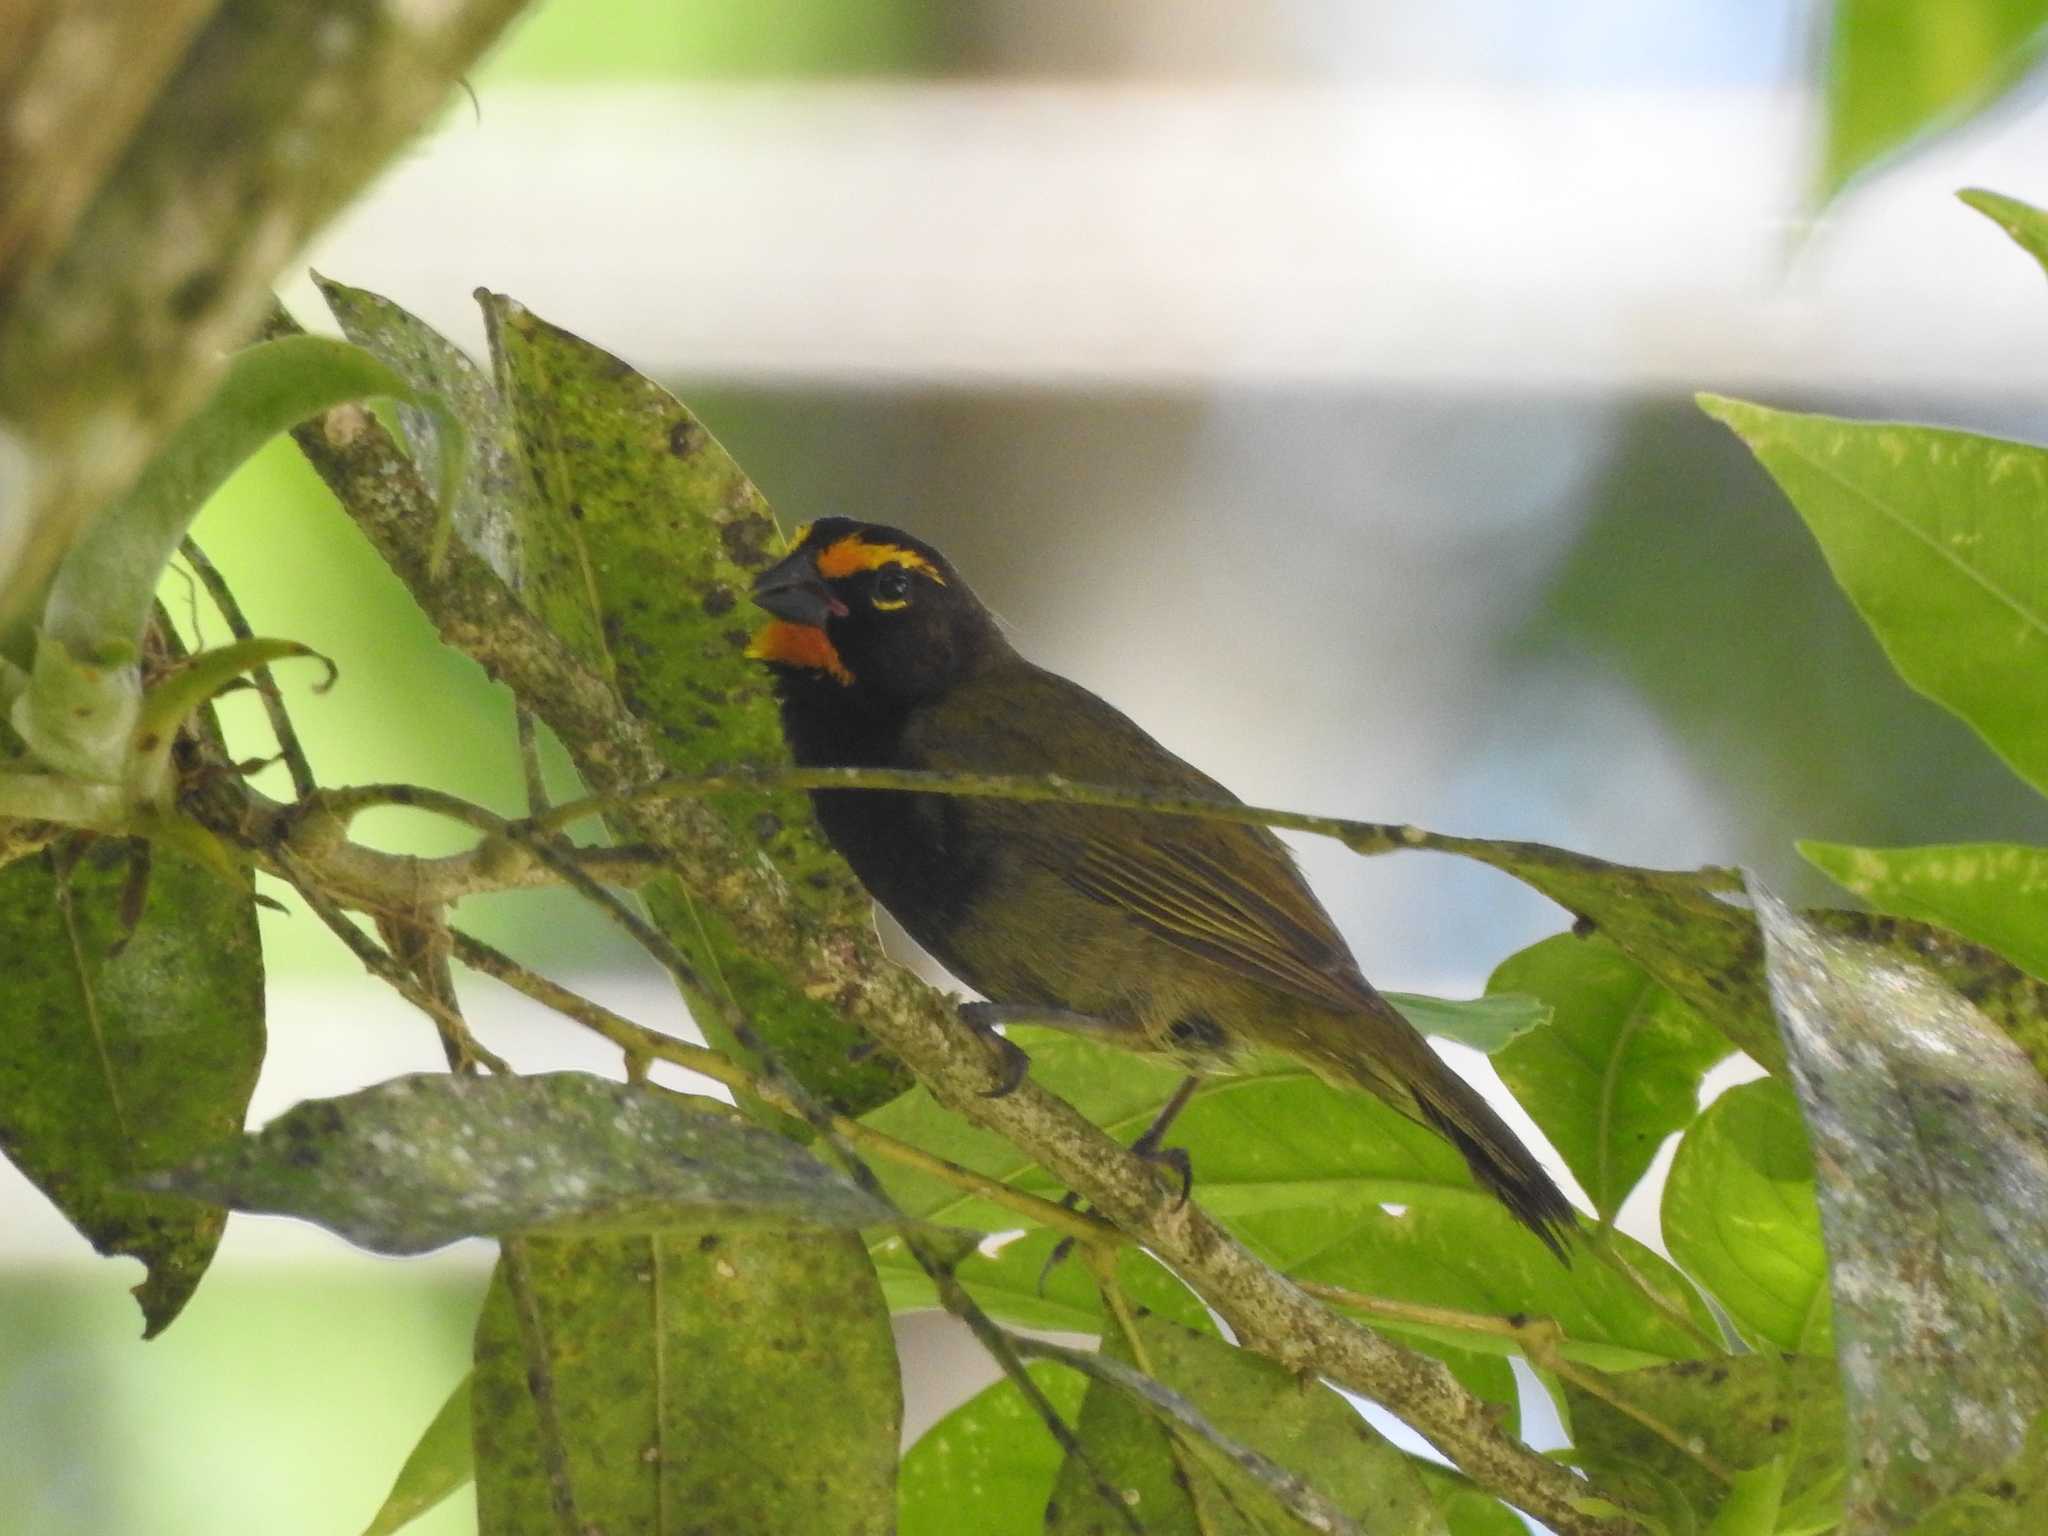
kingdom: Animalia
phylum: Chordata
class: Aves
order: Passeriformes
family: Thraupidae
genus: Tiaris
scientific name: Tiaris olivaceus
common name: Yellow-faced grassquit
